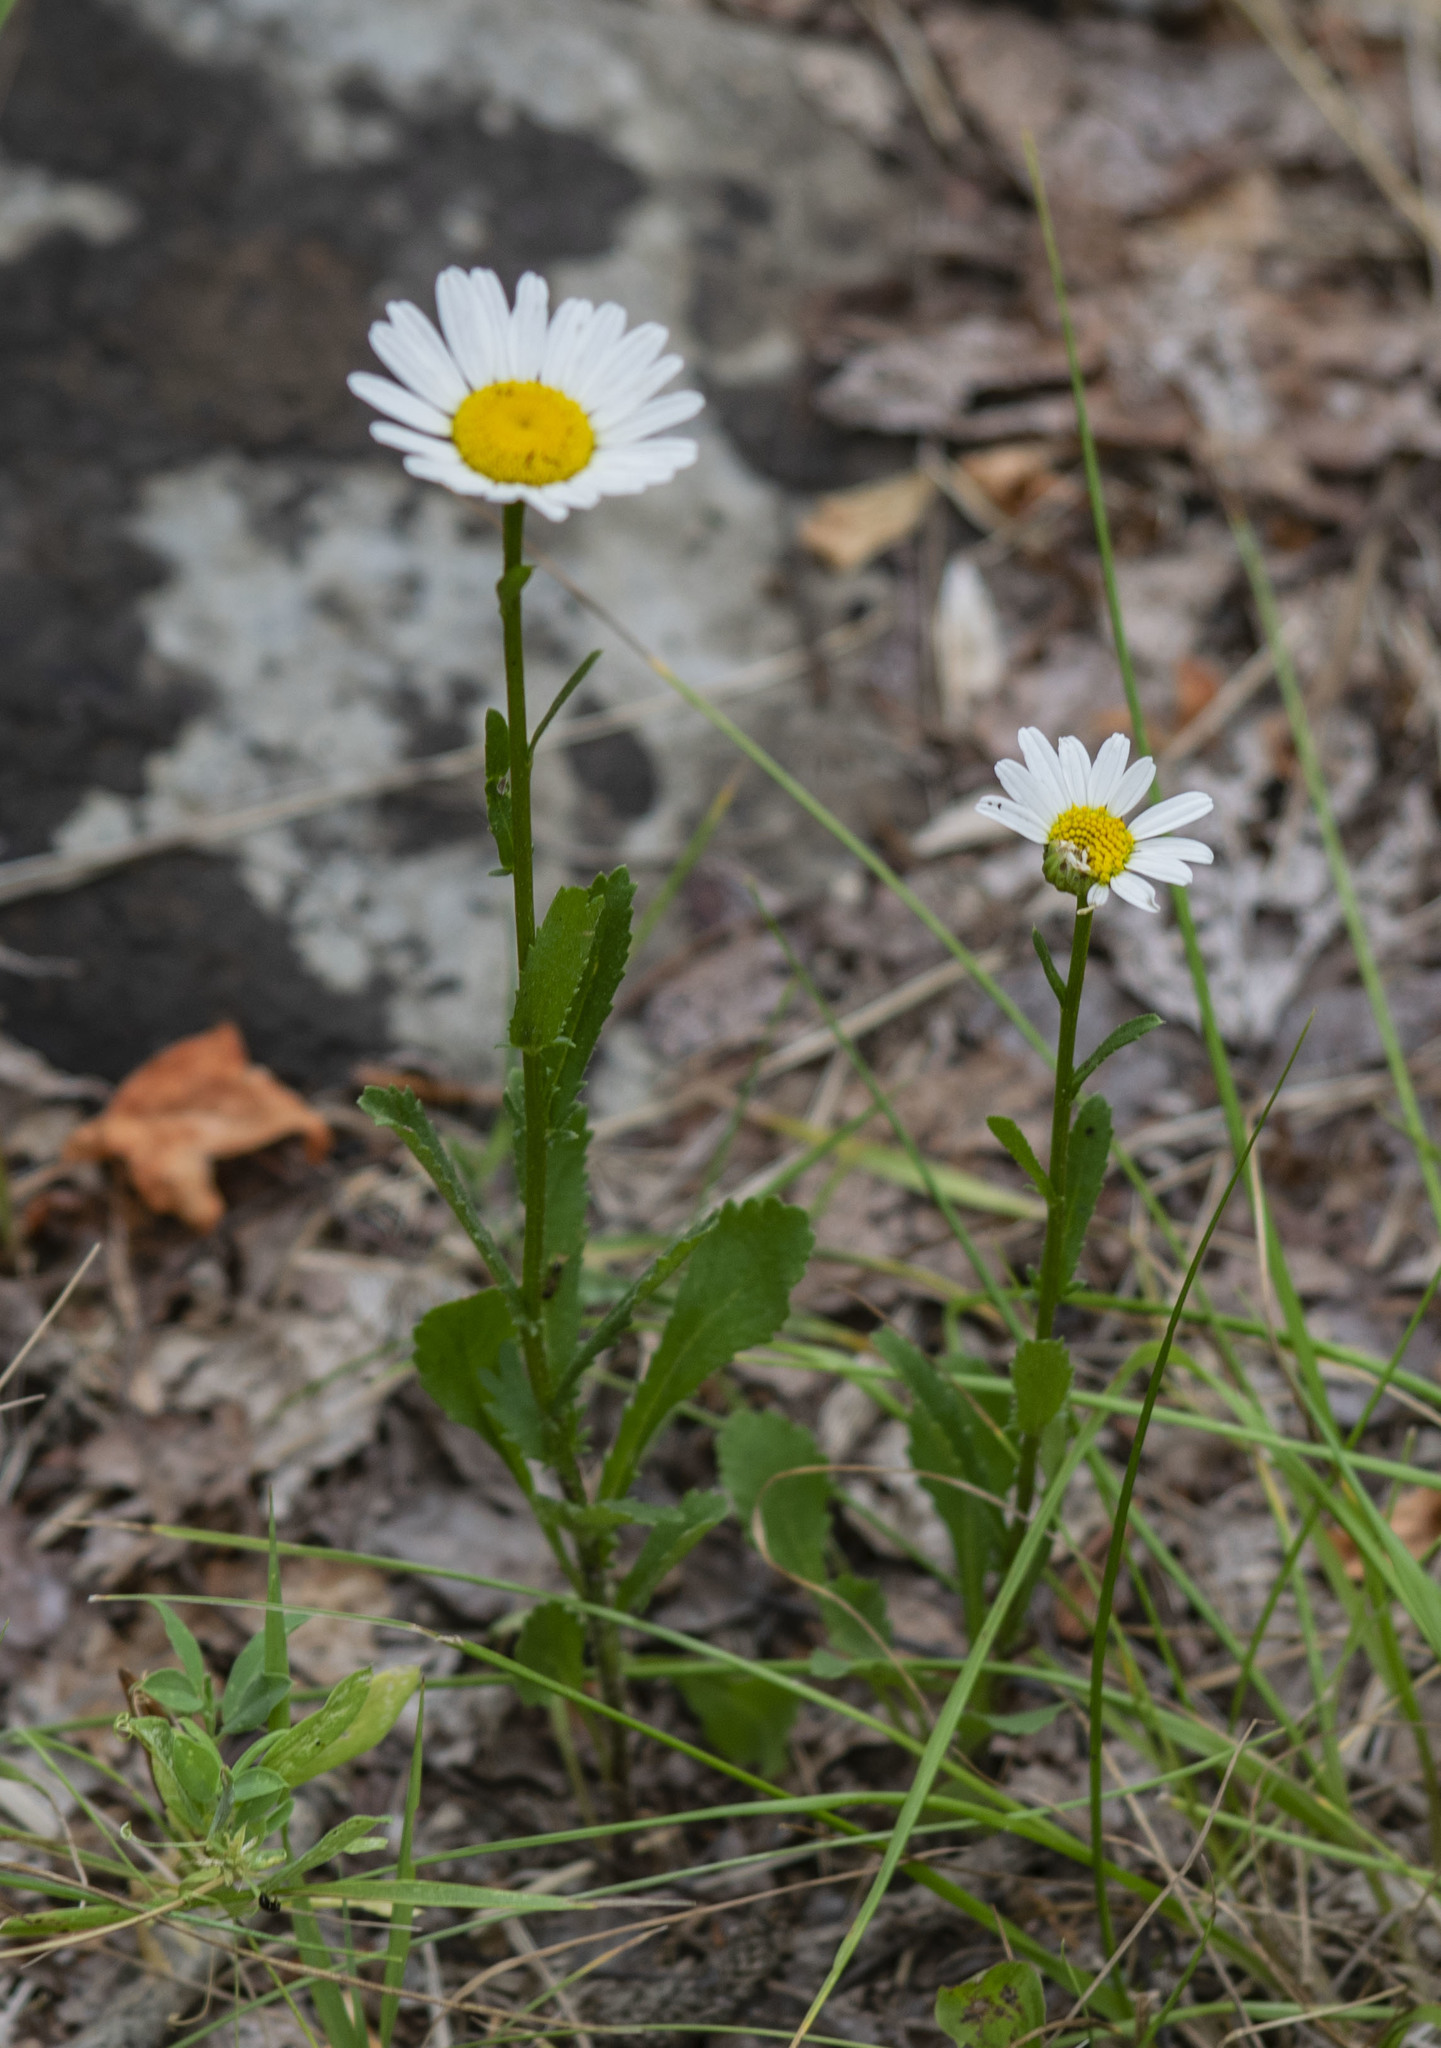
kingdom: Plantae
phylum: Tracheophyta
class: Magnoliopsida
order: Asterales
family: Asteraceae
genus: Leucanthemum
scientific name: Leucanthemum ircutianum
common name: Daisy
